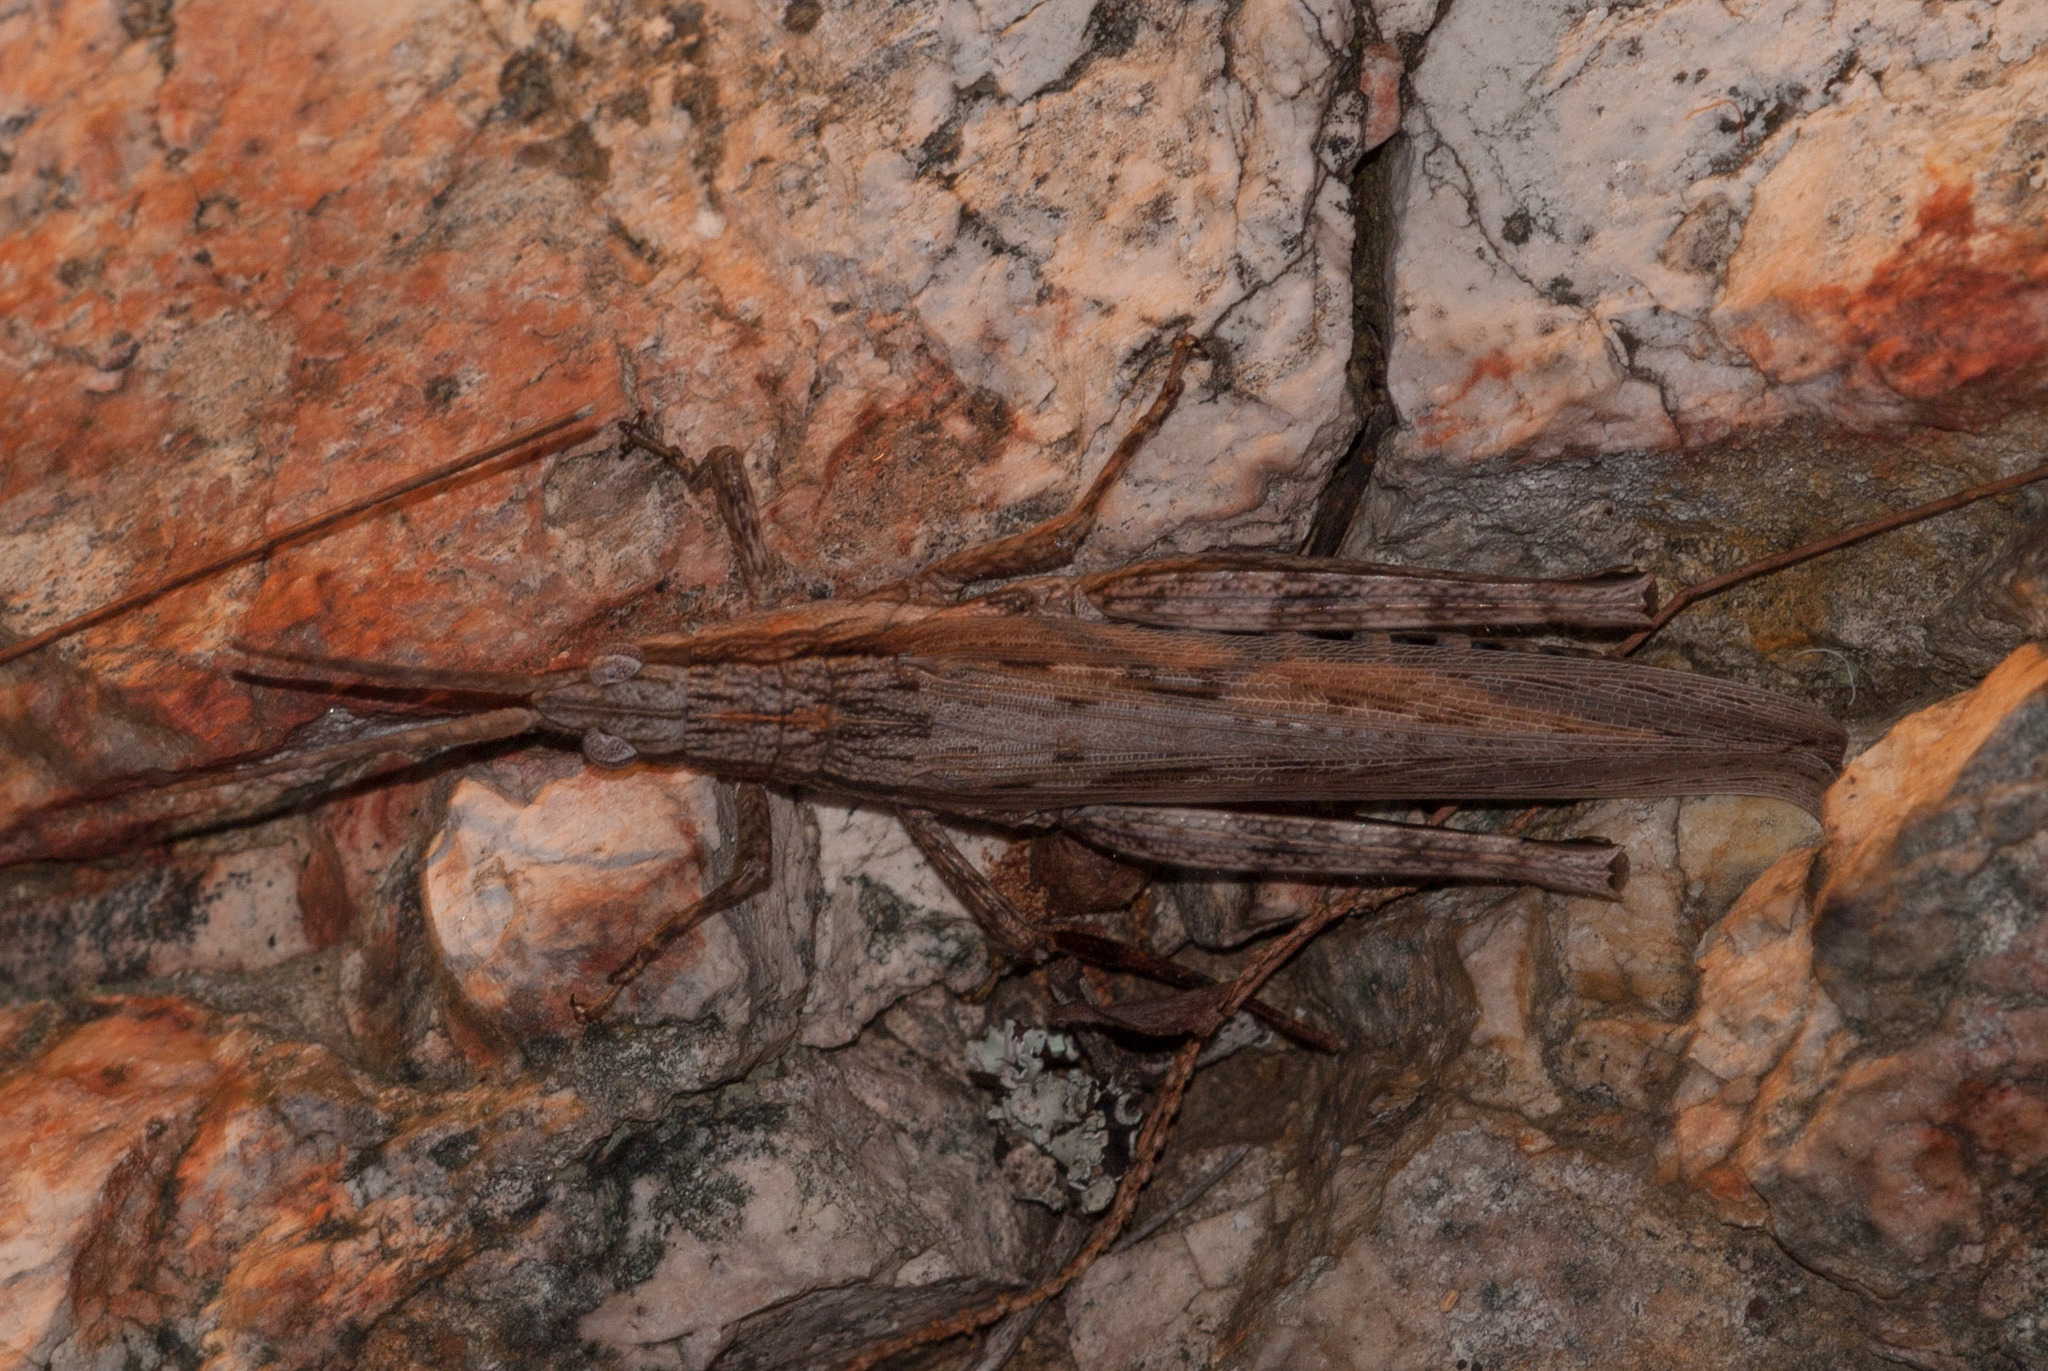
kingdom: Animalia
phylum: Arthropoda
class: Insecta
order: Orthoptera
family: Acrididae
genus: Coryphistes
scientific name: Coryphistes ruricola
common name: Bark-mimicking grasshopper
